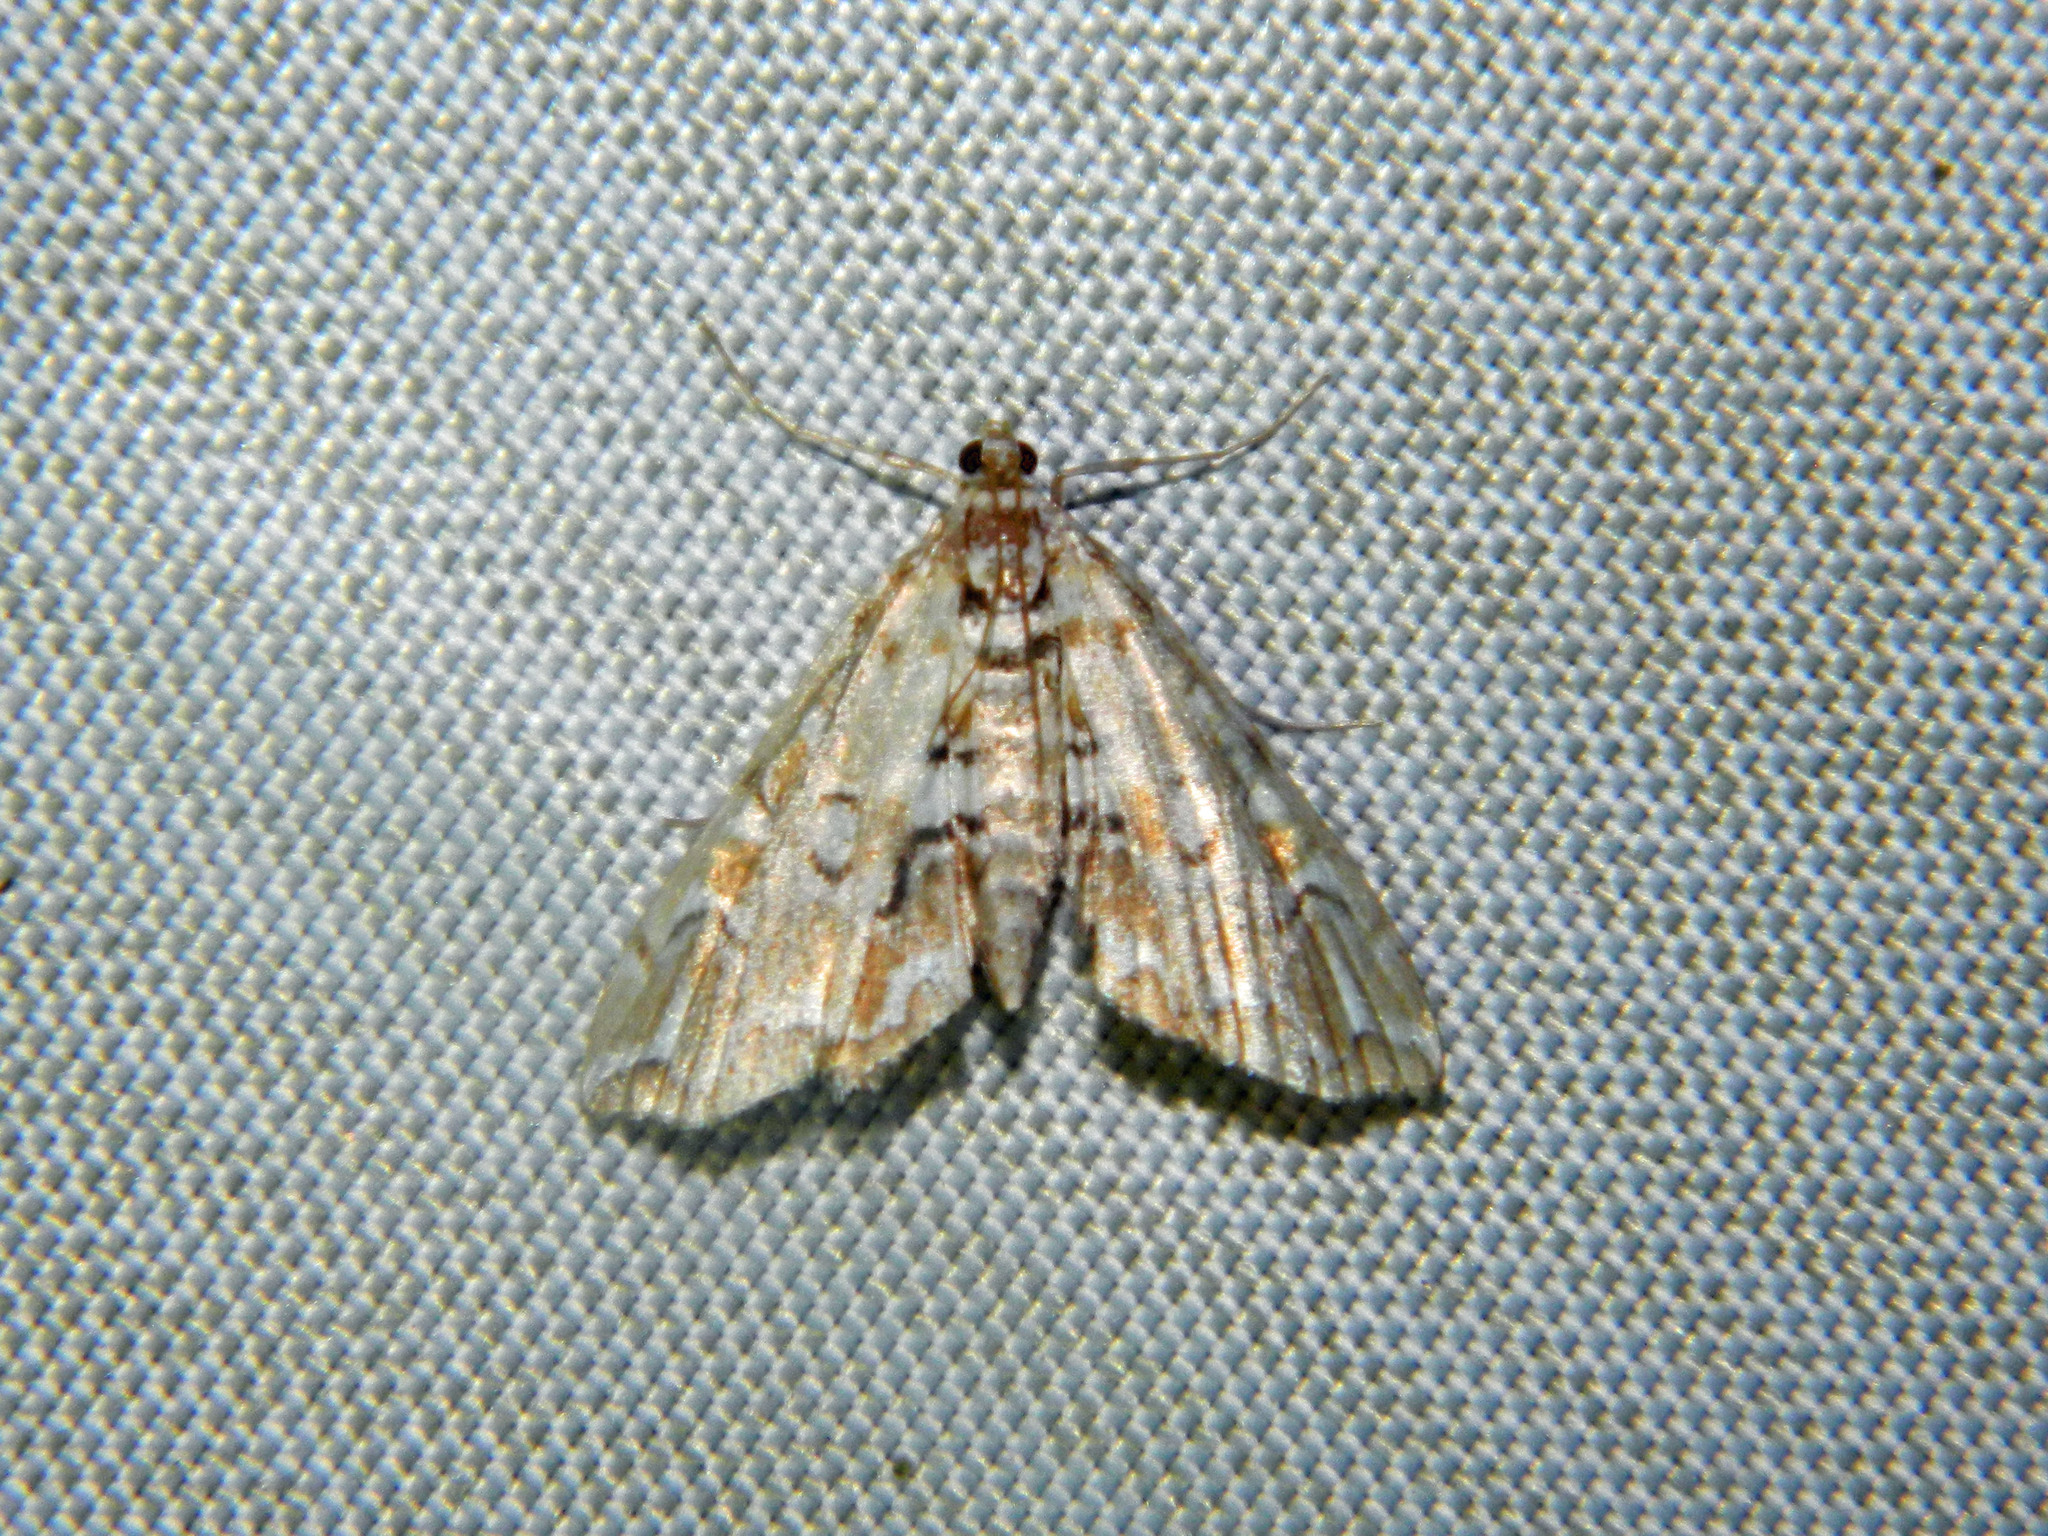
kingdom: Animalia
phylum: Arthropoda
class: Insecta
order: Lepidoptera
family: Crambidae
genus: Elophila
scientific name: Elophila icciusalis
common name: Pondside pyralid moth
